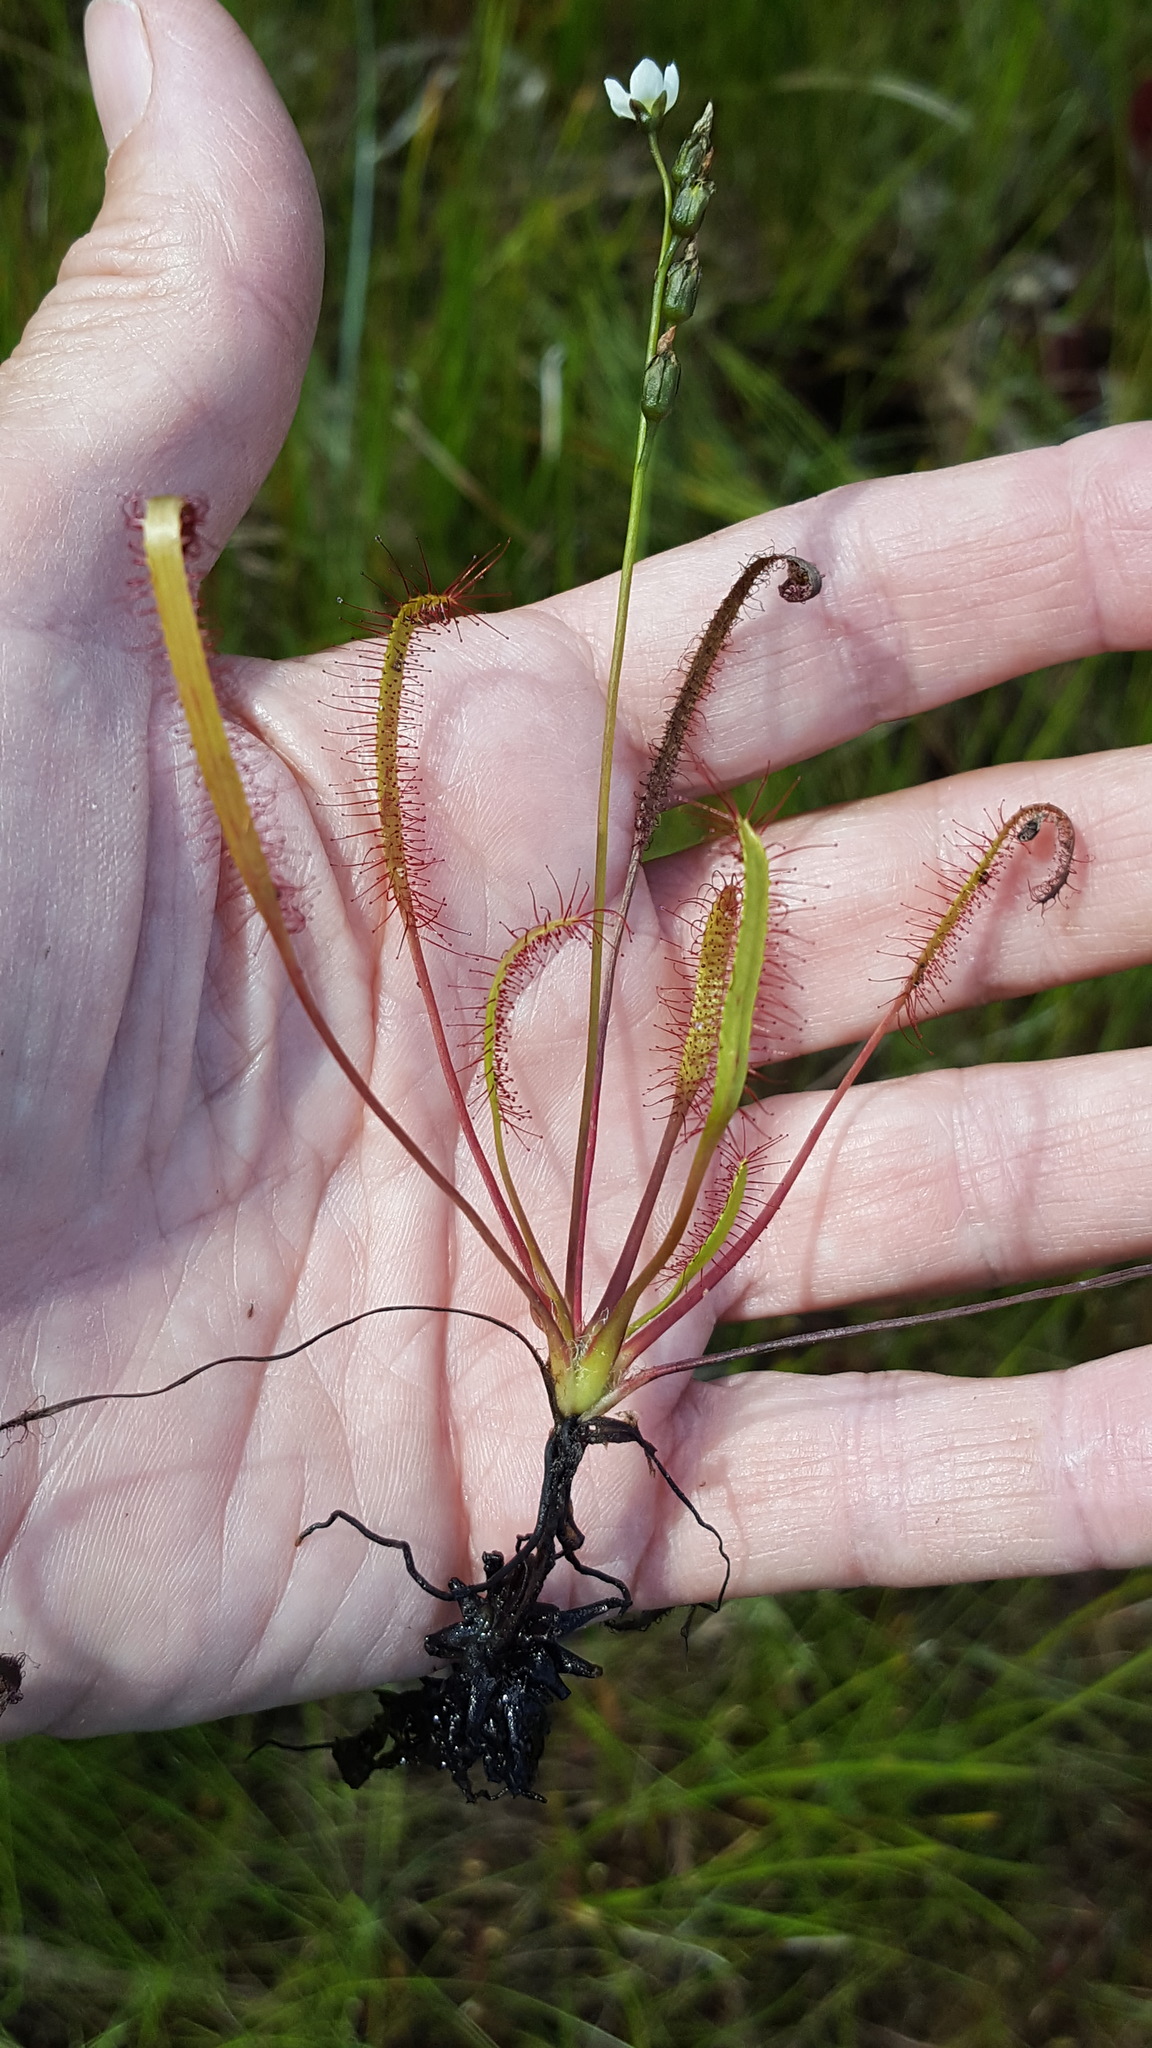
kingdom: Plantae
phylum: Tracheophyta
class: Magnoliopsida
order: Caryophyllales
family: Droseraceae
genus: Drosera
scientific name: Drosera linearis
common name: Linear-leaved sundew
